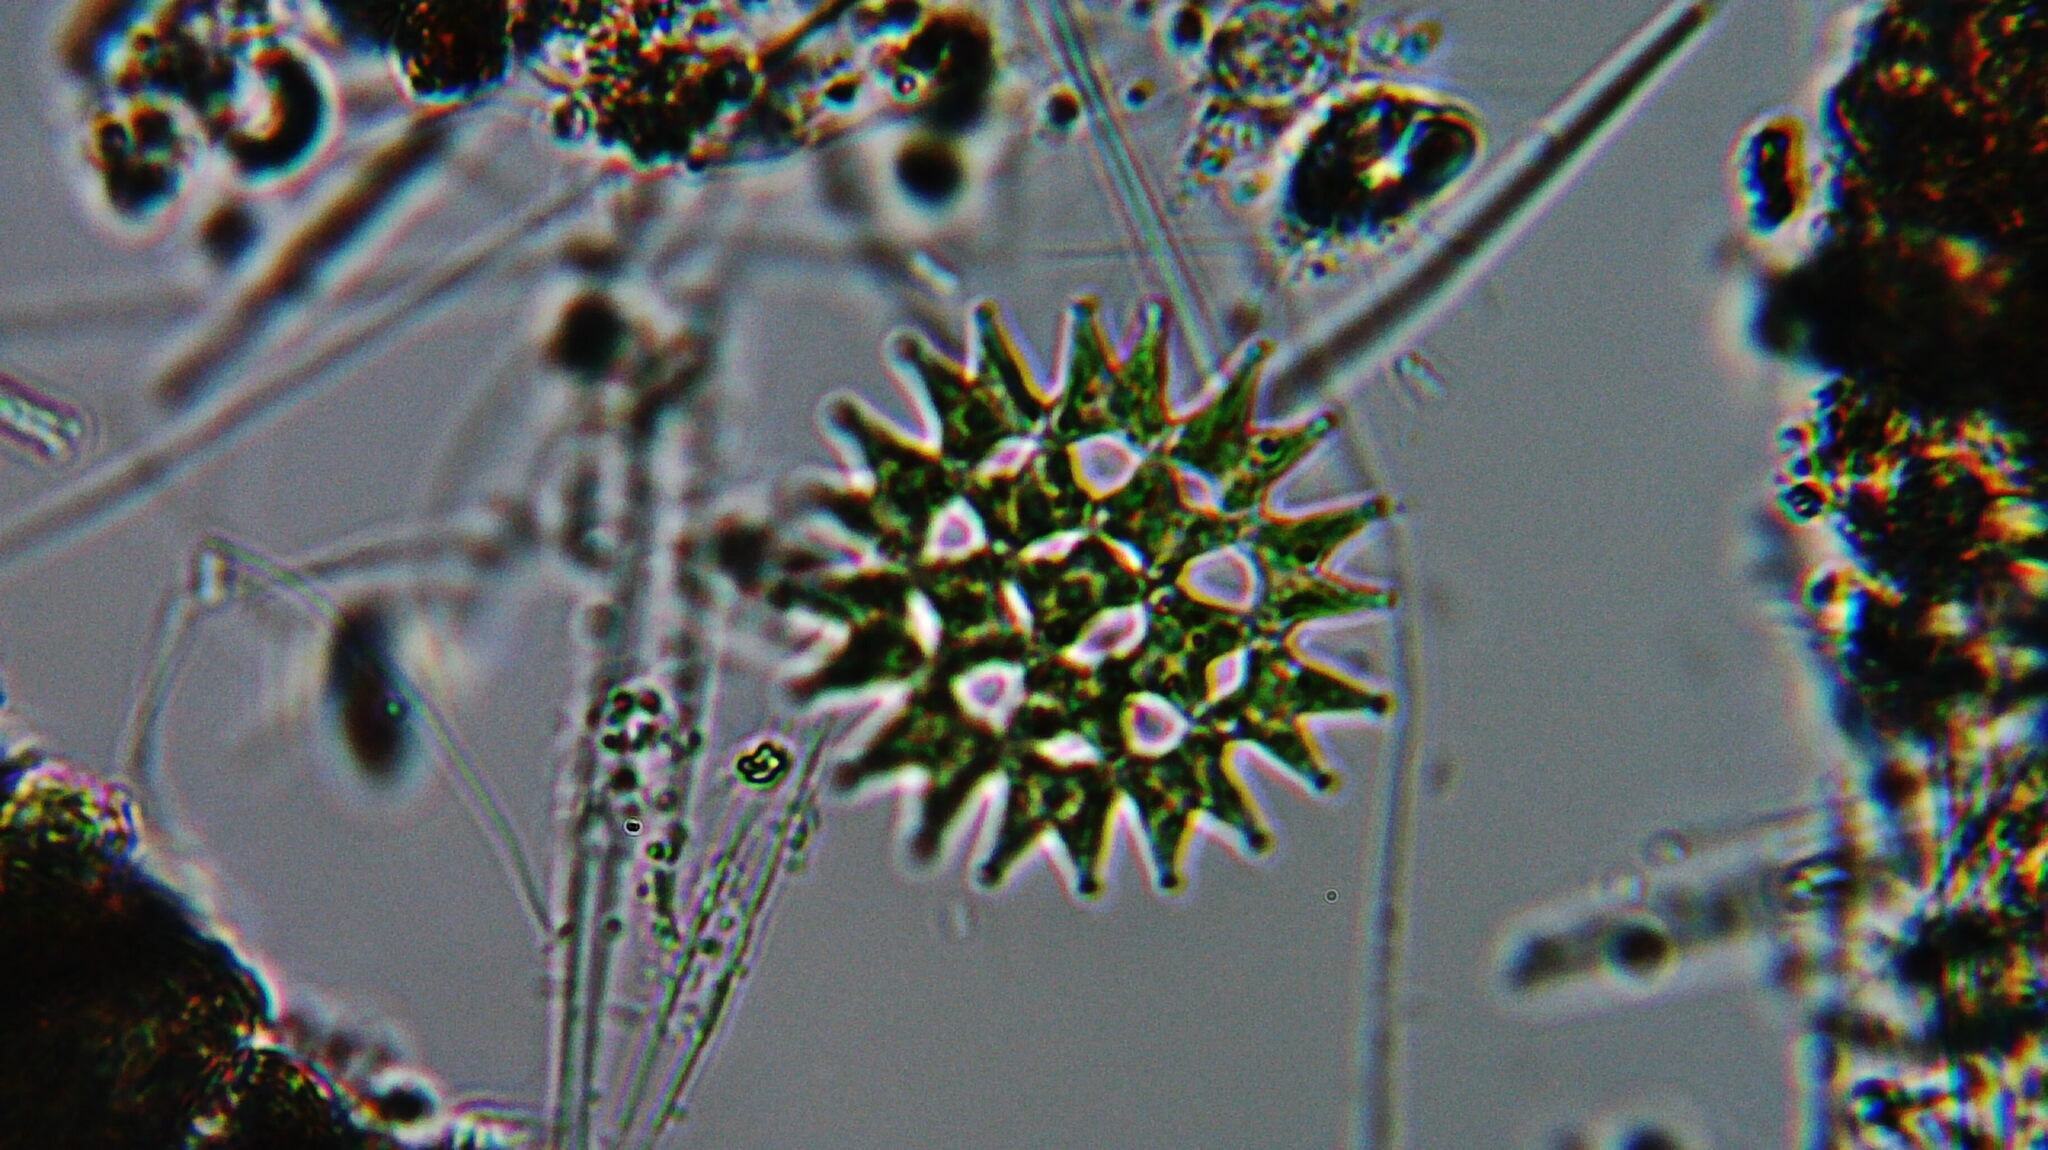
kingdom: Plantae
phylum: Chlorophyta
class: Chlorophyceae
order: Sphaeropleales
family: Hydrodictyaceae
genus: Pediastrum
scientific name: Pediastrum duplex
